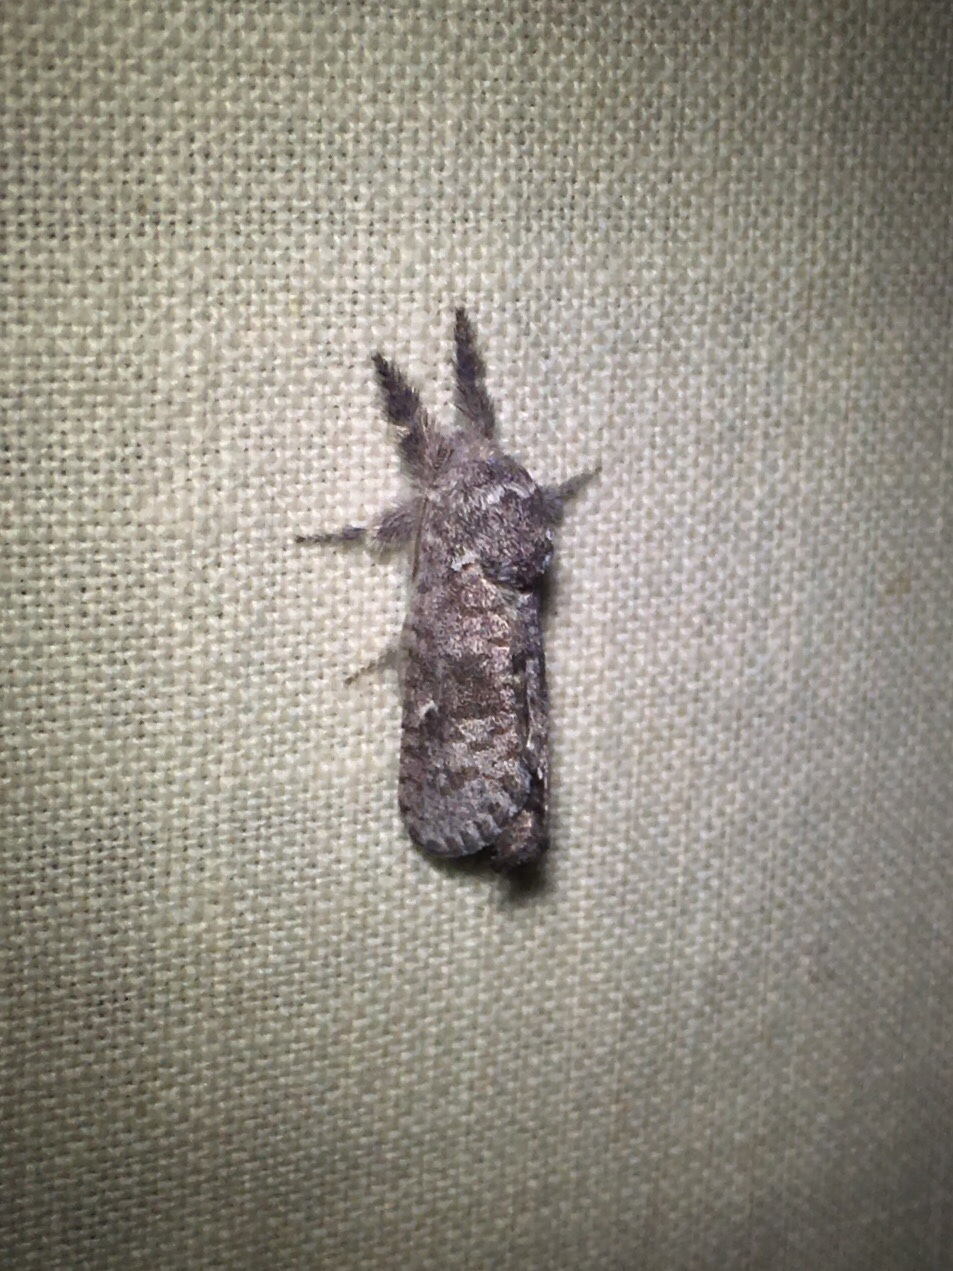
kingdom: Animalia
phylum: Arthropoda
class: Insecta
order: Lepidoptera
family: Cossidae
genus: Givira
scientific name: Givira francesca
